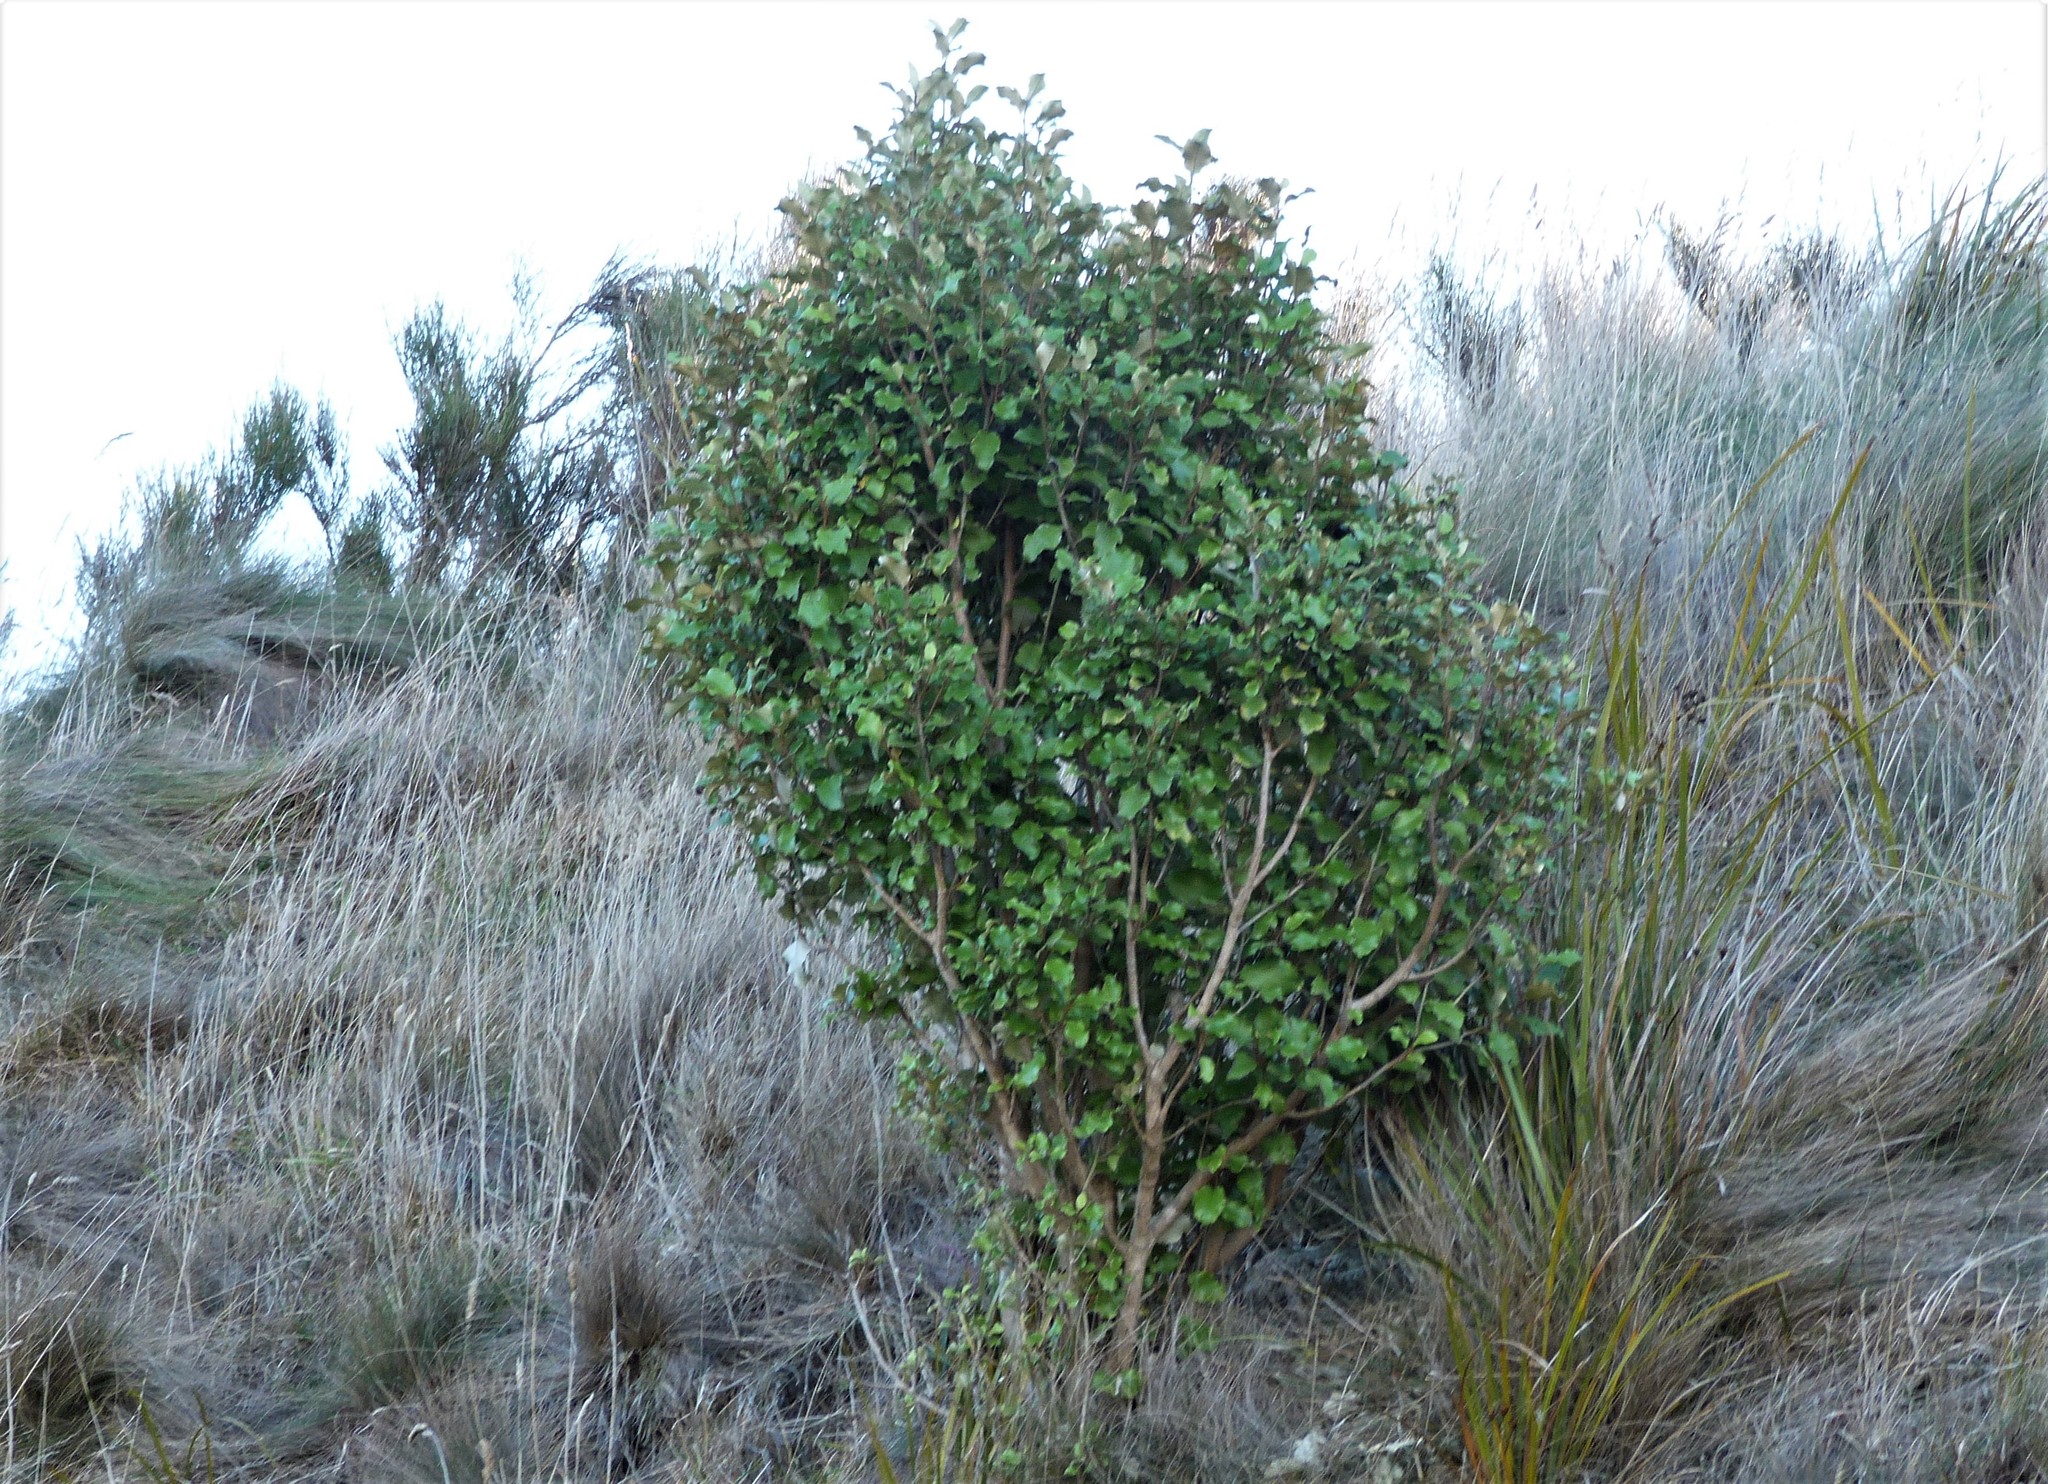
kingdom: Plantae
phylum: Tracheophyta
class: Magnoliopsida
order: Asterales
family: Asteraceae
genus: Olearia
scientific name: Olearia paniculata
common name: Akiraho
